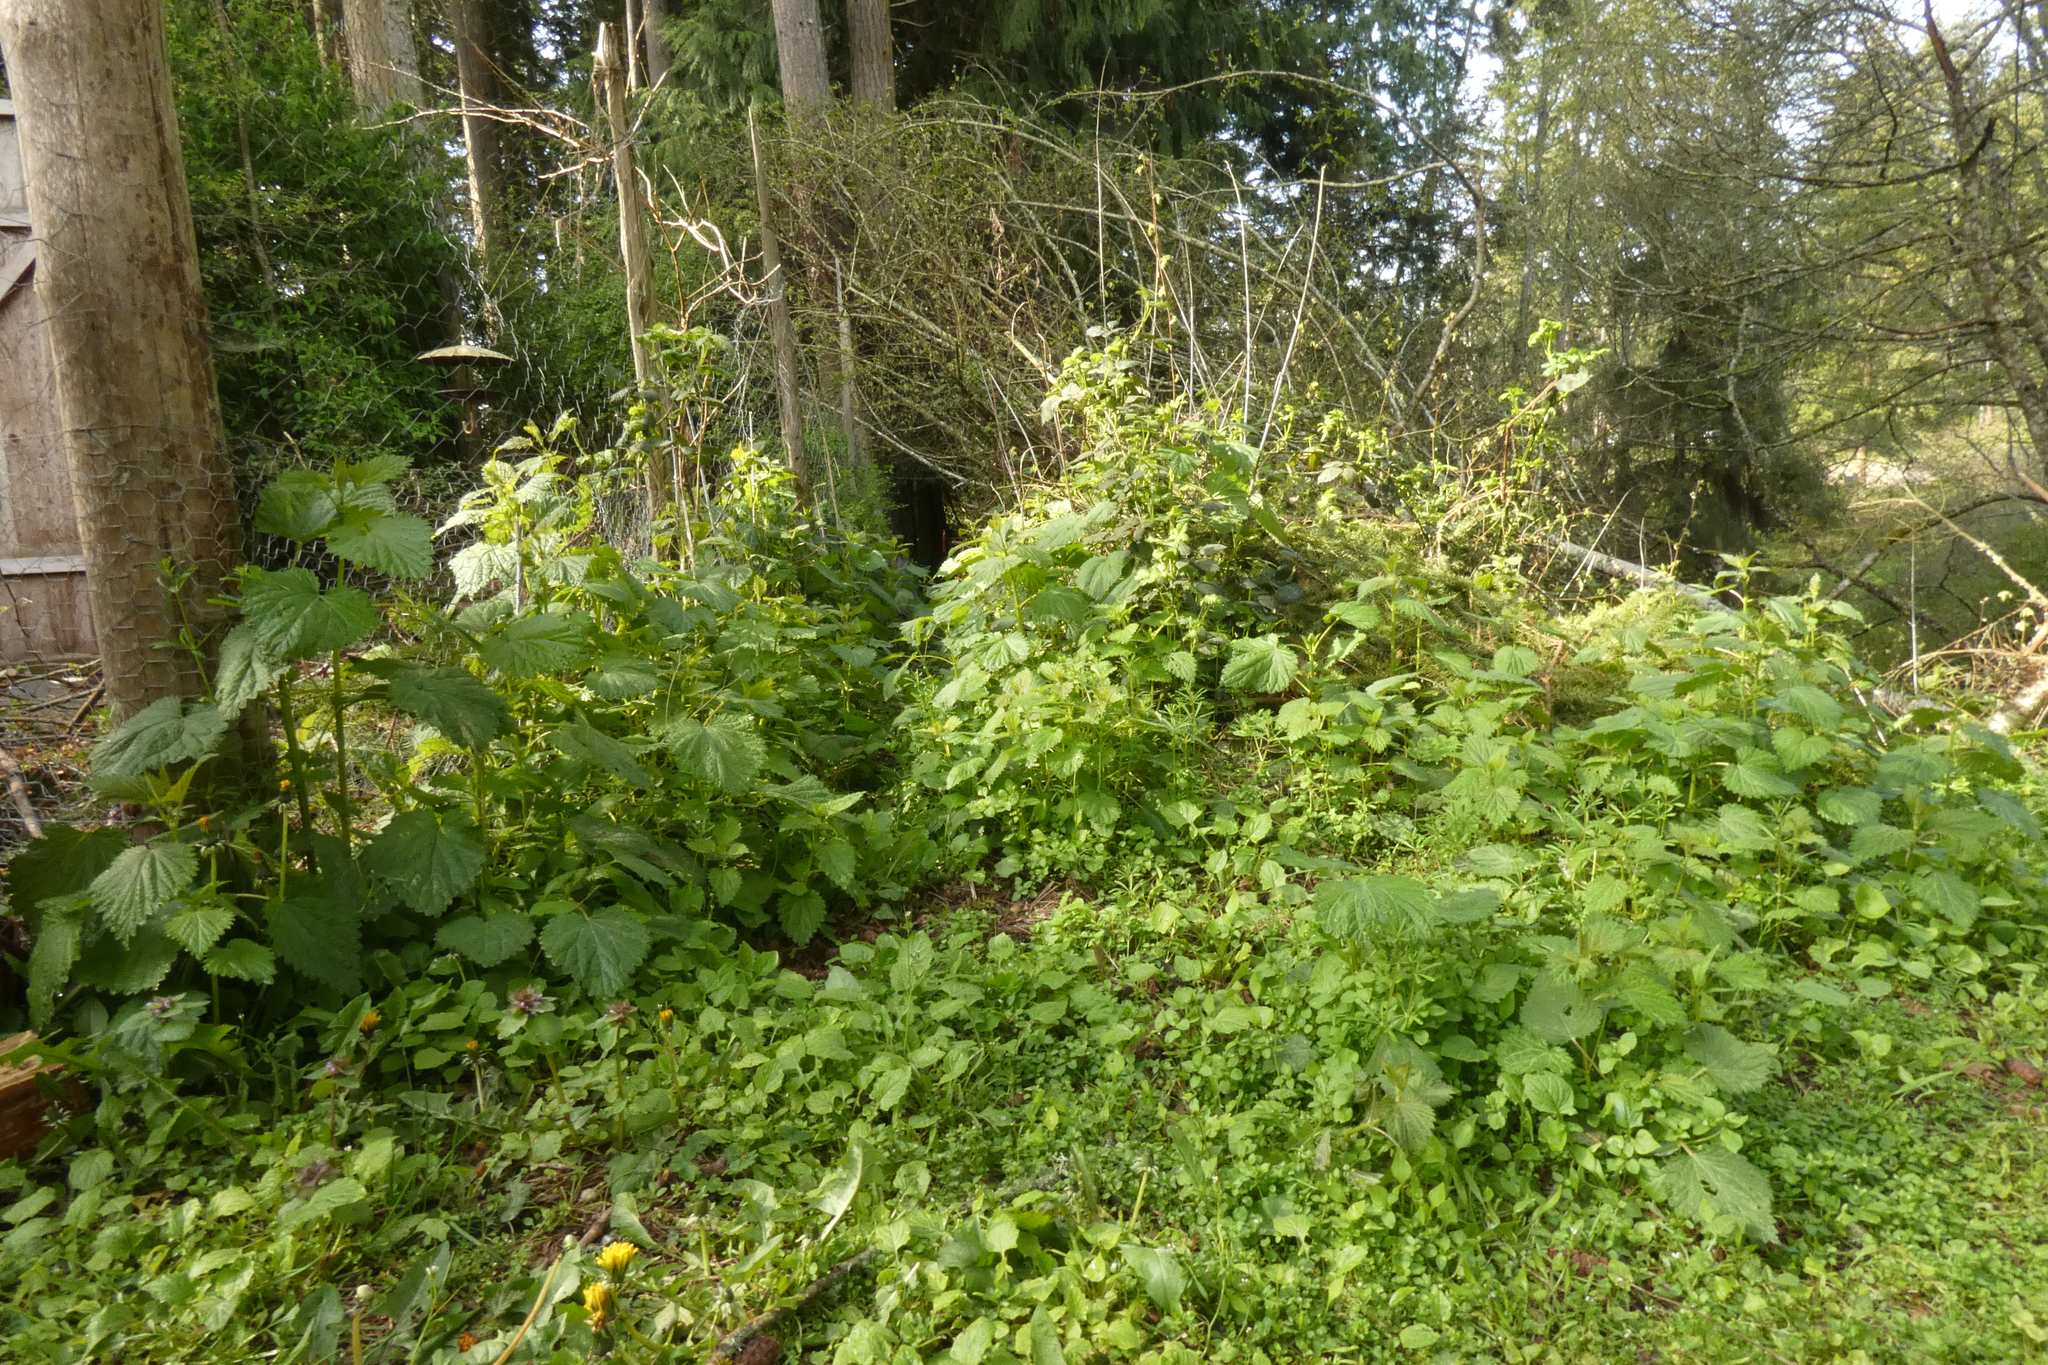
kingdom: Plantae
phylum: Tracheophyta
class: Magnoliopsida
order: Rosales
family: Urticaceae
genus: Urtica
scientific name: Urtica gracilis
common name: Slender stinging nettle
